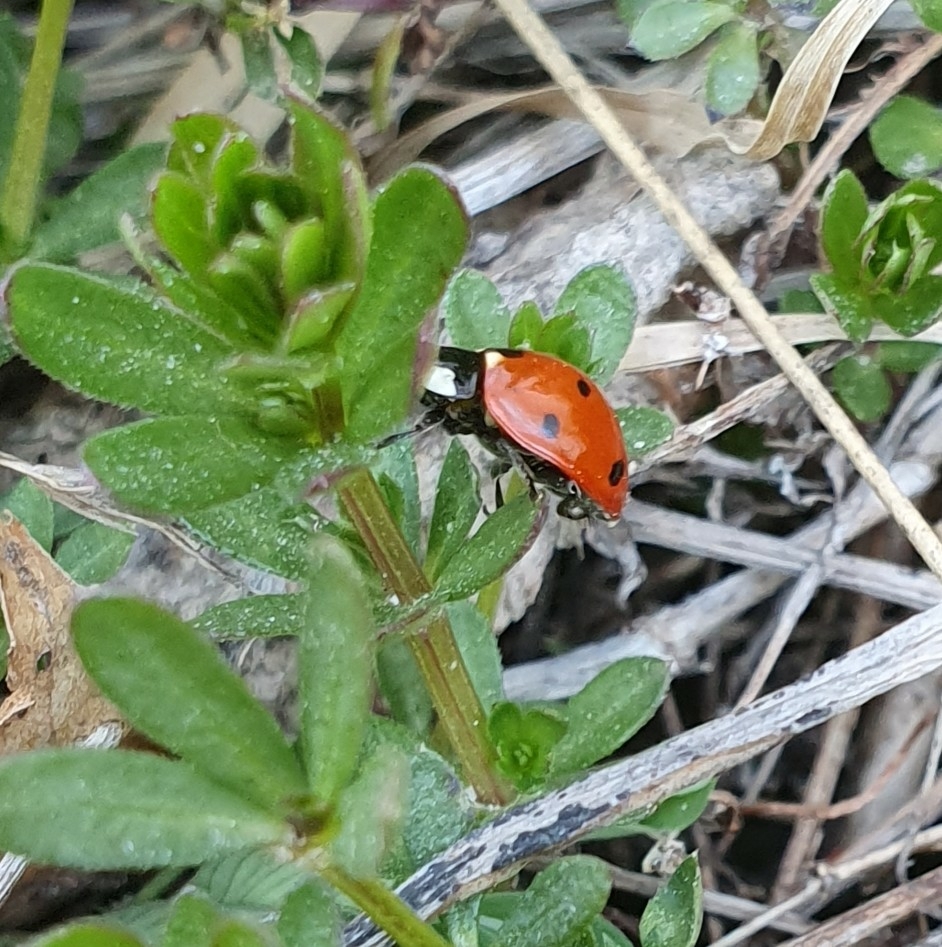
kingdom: Animalia
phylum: Arthropoda
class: Insecta
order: Coleoptera
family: Coccinellidae
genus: Coccinella
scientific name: Coccinella septempunctata
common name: Sevenspotted lady beetle
